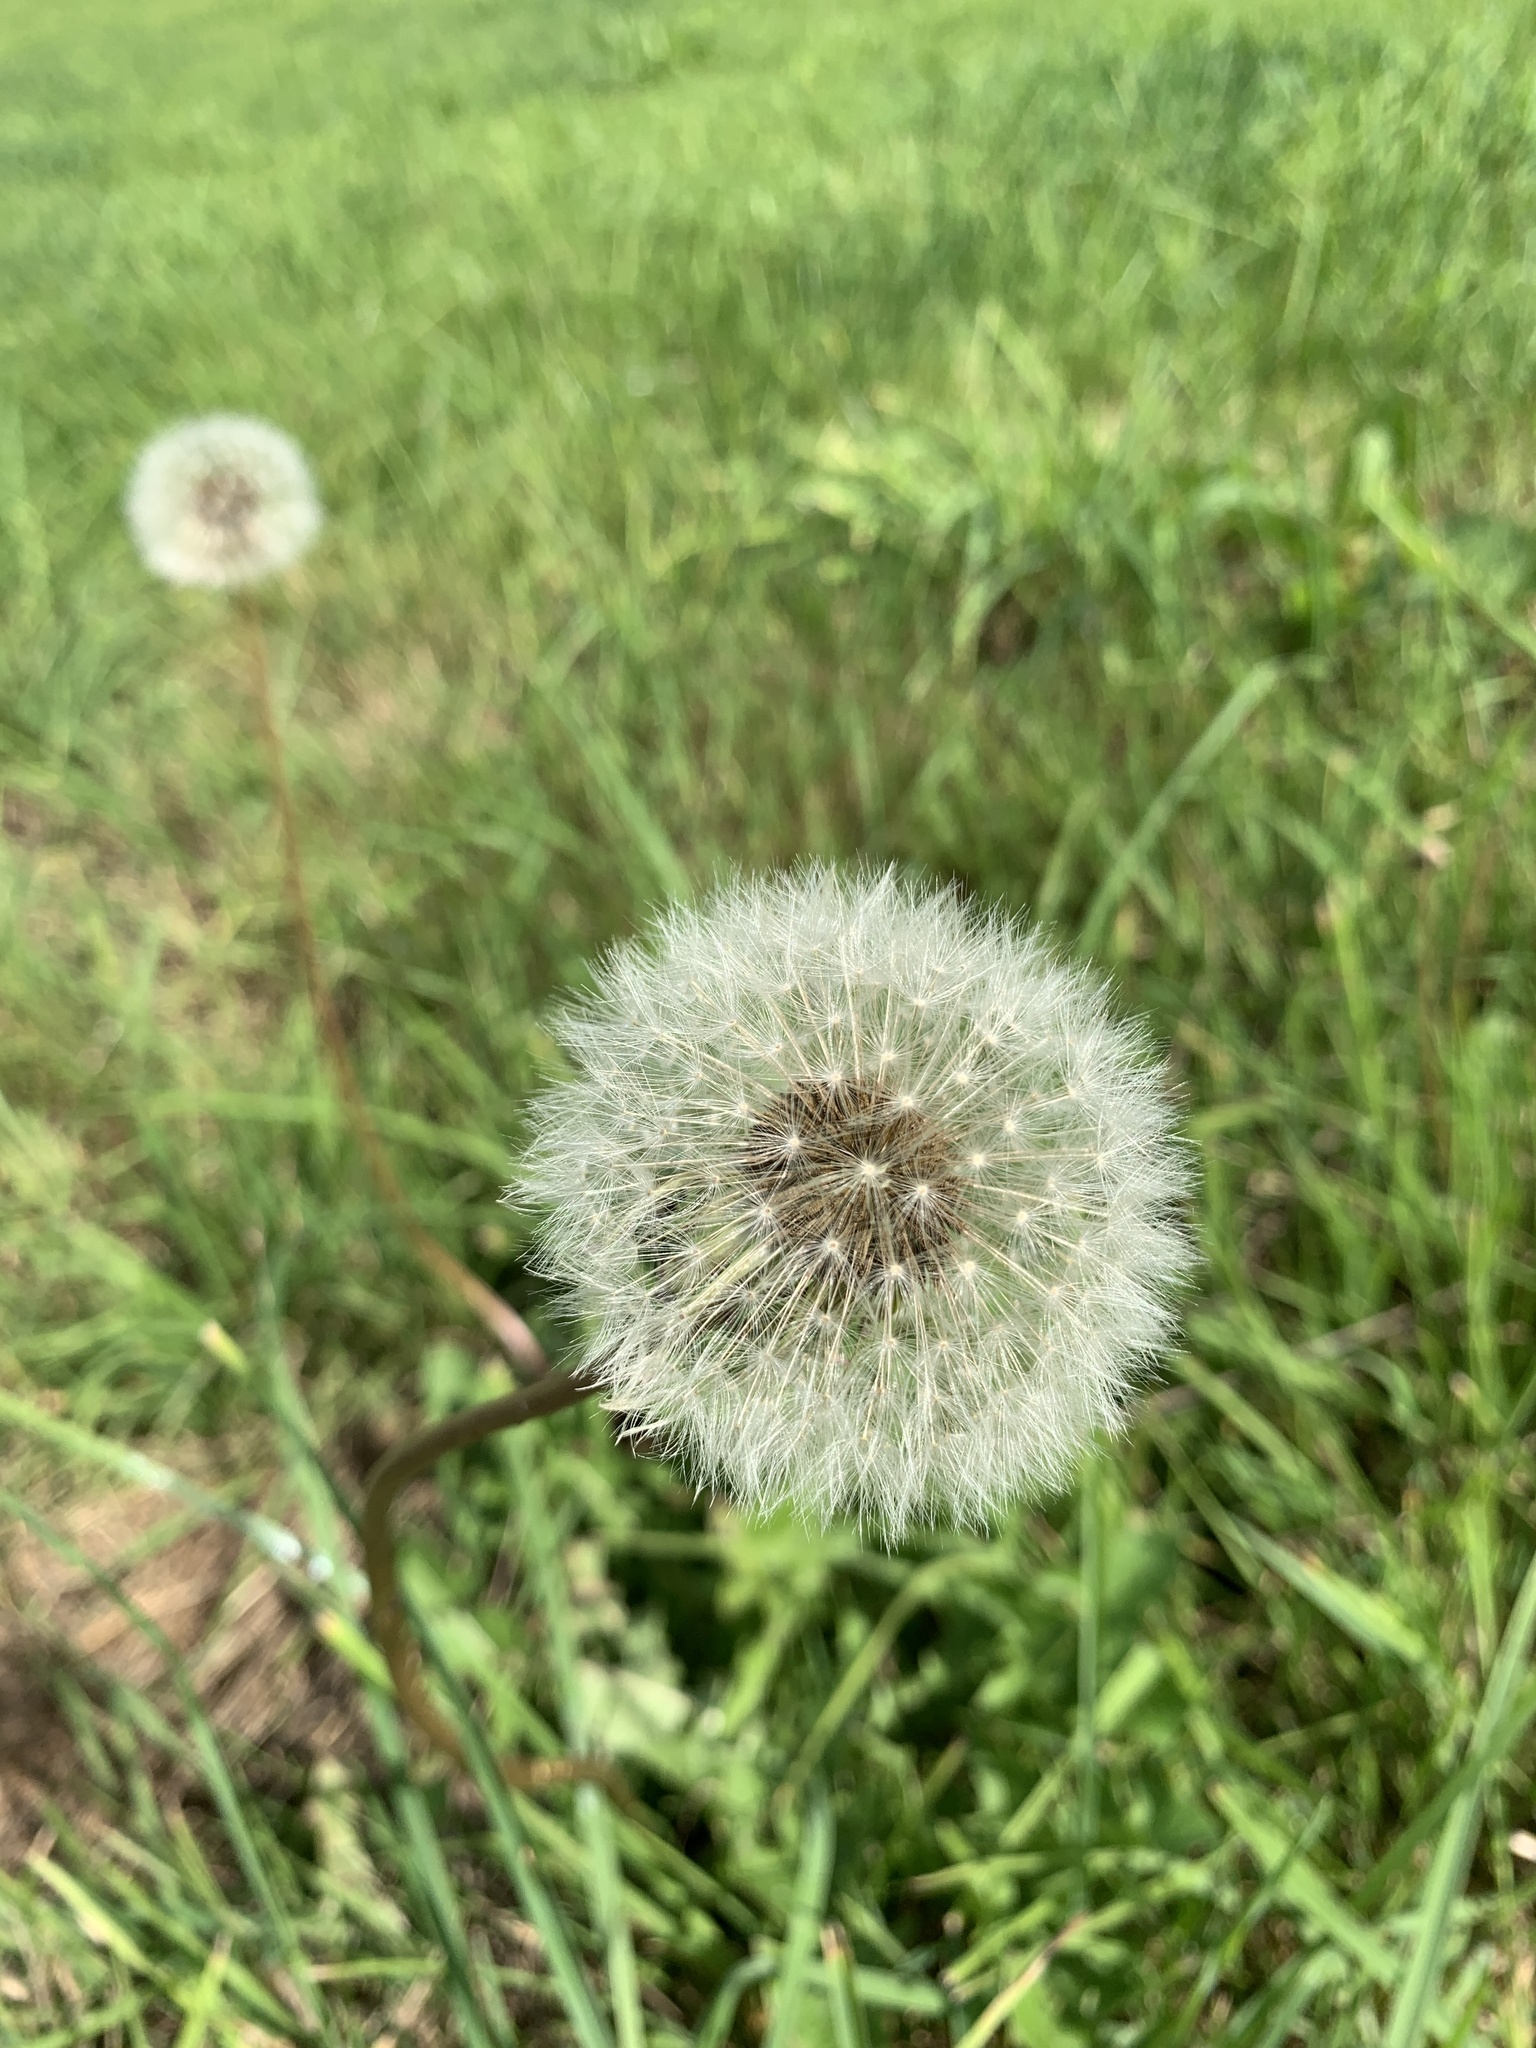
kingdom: Plantae
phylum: Tracheophyta
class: Magnoliopsida
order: Asterales
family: Asteraceae
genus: Taraxacum
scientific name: Taraxacum officinale
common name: Common dandelion
